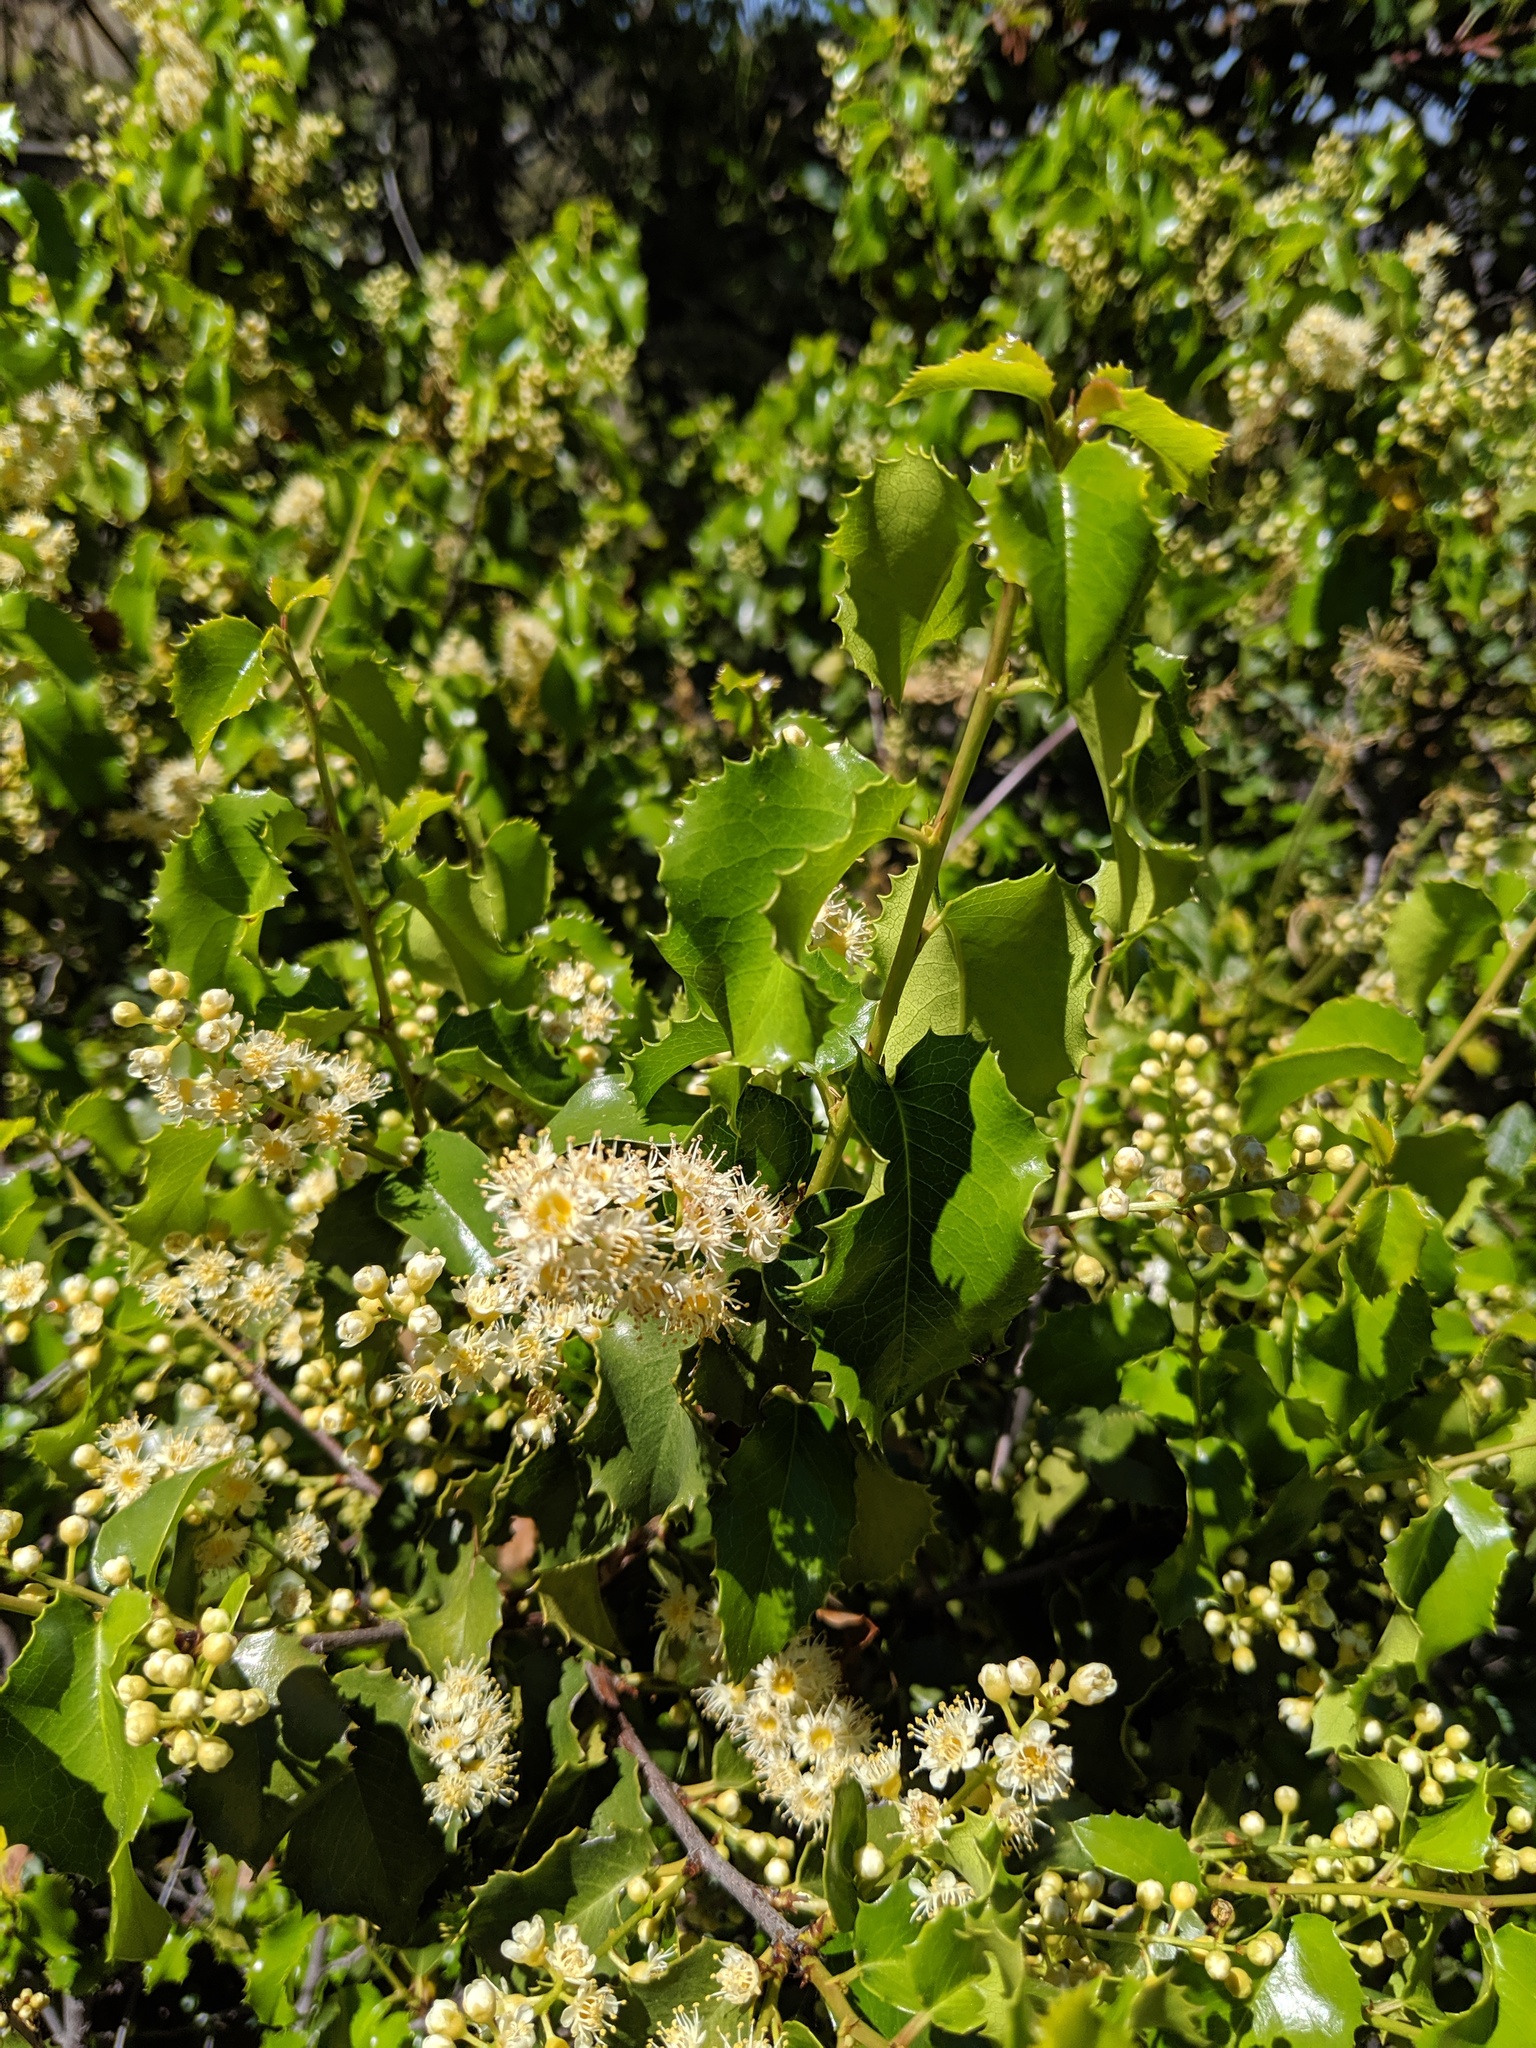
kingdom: Plantae
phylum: Tracheophyta
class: Magnoliopsida
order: Rosales
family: Rosaceae
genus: Prunus
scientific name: Prunus ilicifolia
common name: Hollyleaf cherry
